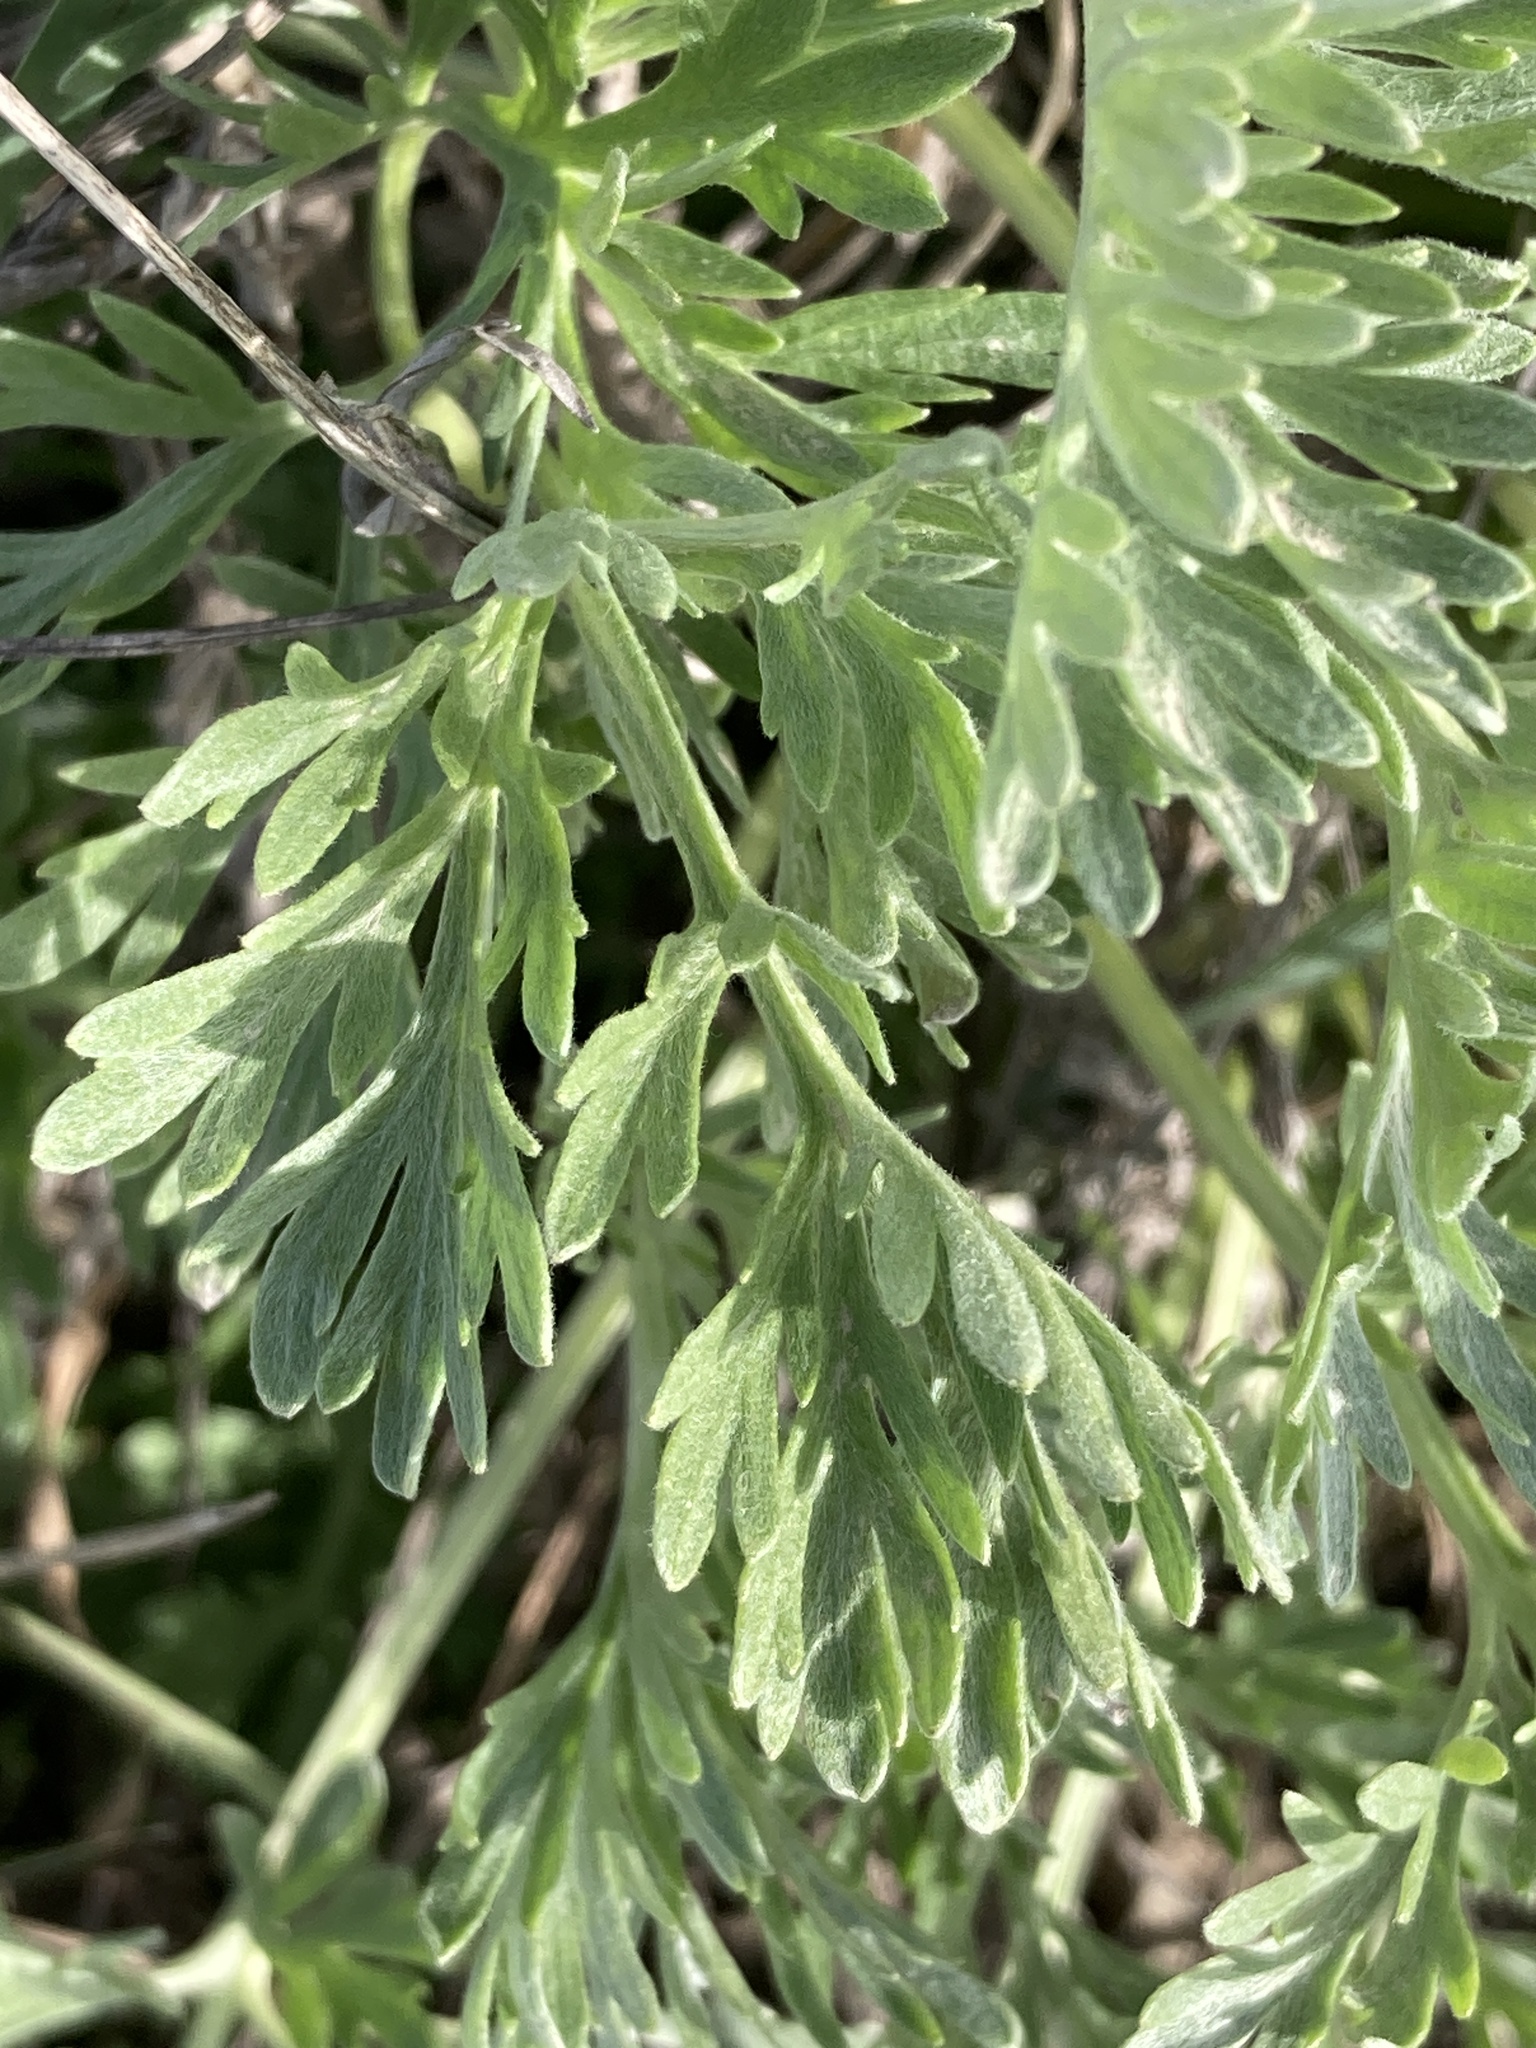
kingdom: Plantae
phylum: Tracheophyta
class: Magnoliopsida
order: Asterales
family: Asteraceae
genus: Artemisia
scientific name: Artemisia absinthium
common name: Wormwood
